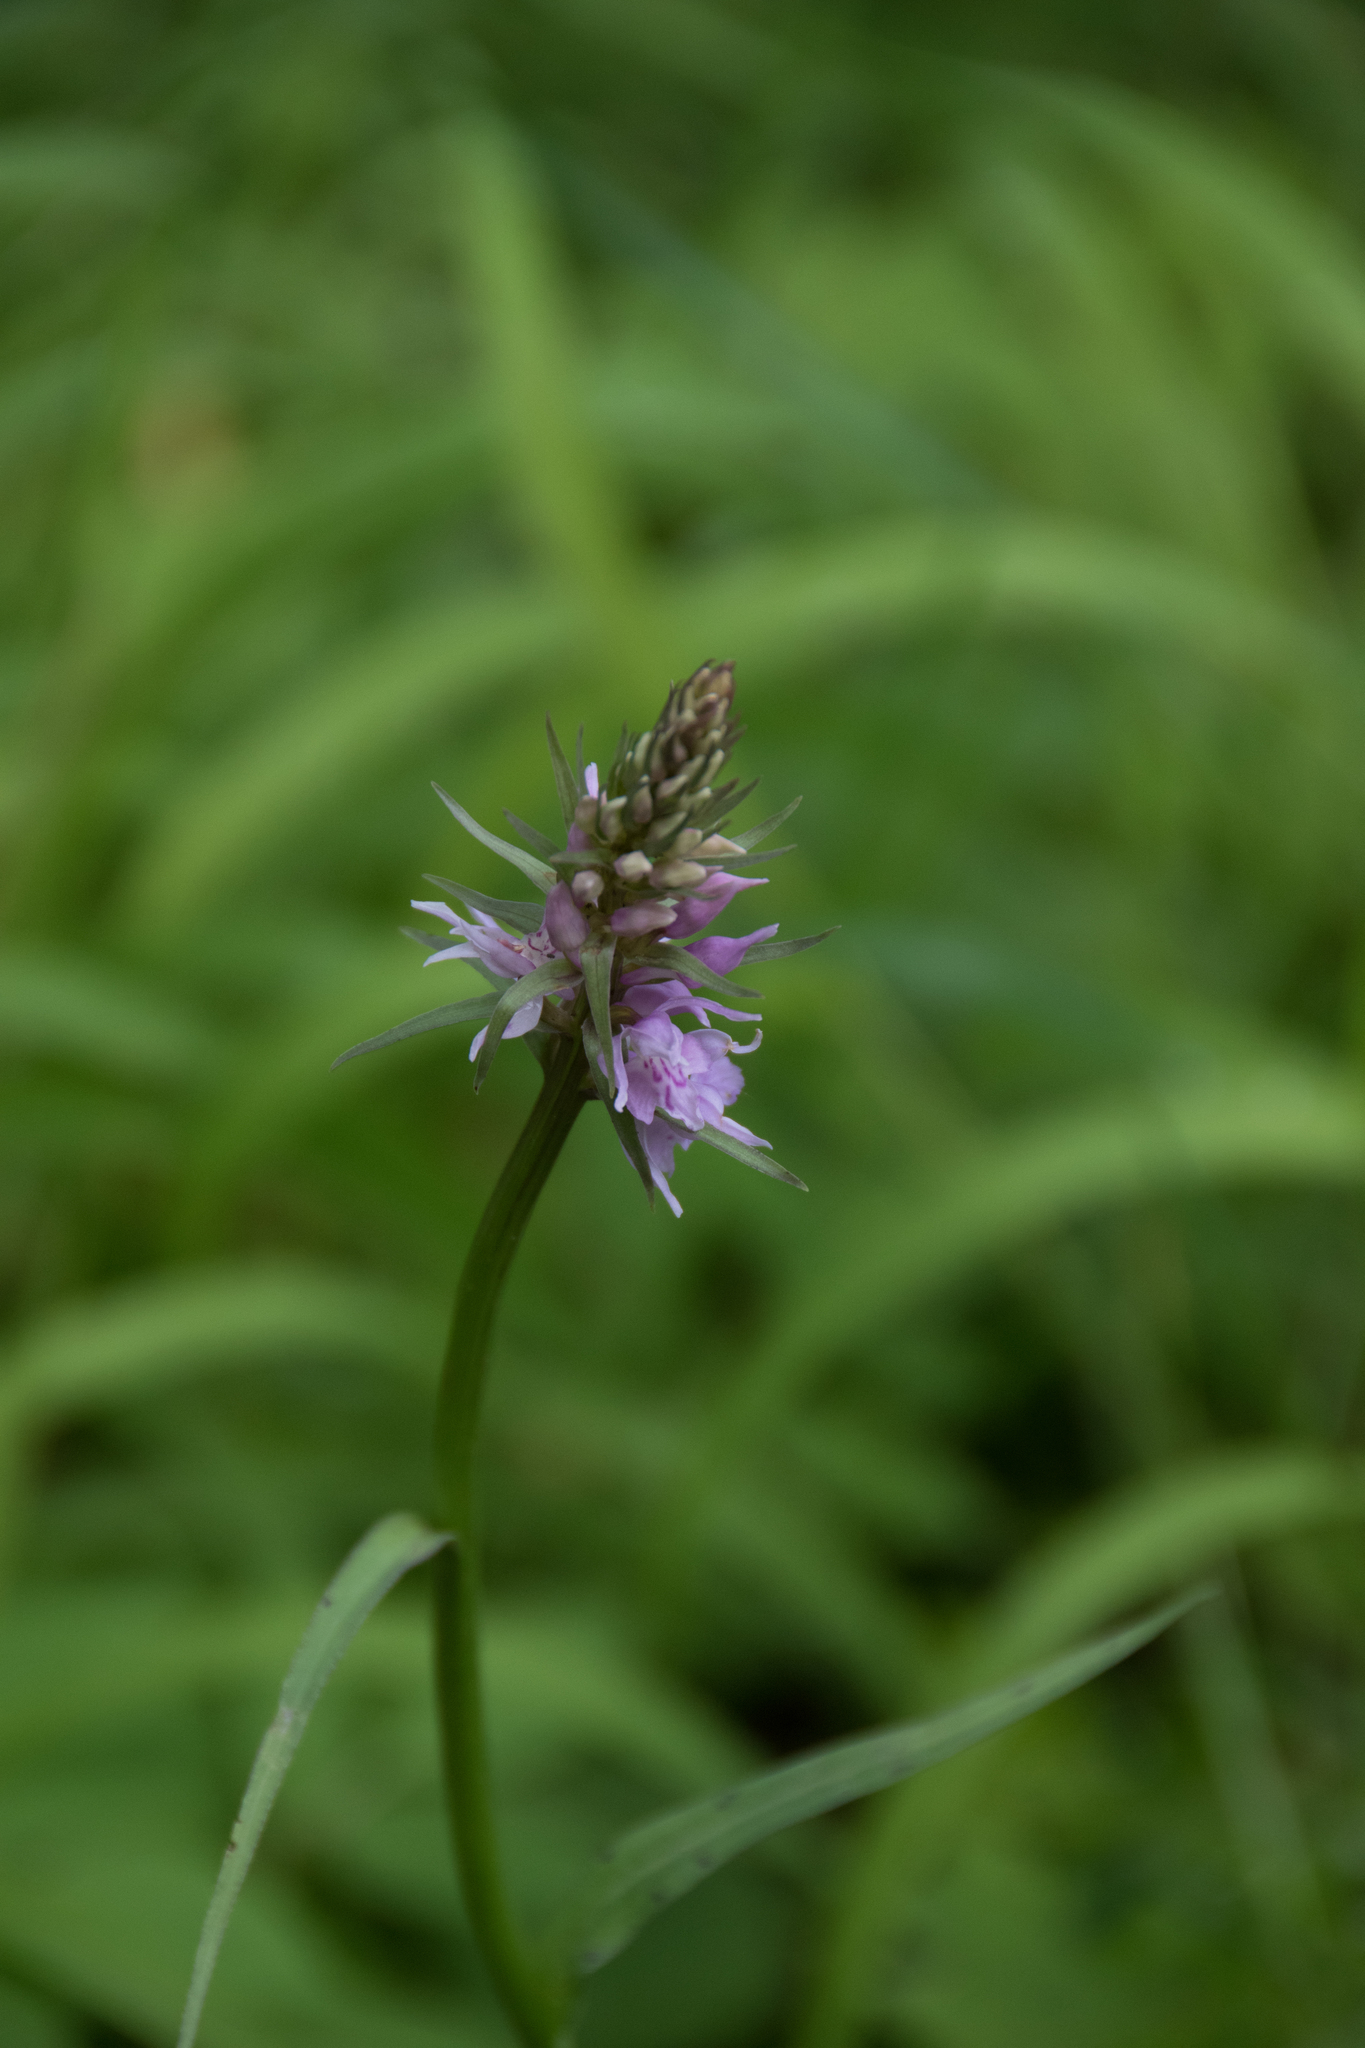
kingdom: Plantae
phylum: Tracheophyta
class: Liliopsida
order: Asparagales
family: Orchidaceae
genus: Dactylorhiza
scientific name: Dactylorhiza maculata
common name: Heath spotted-orchid
